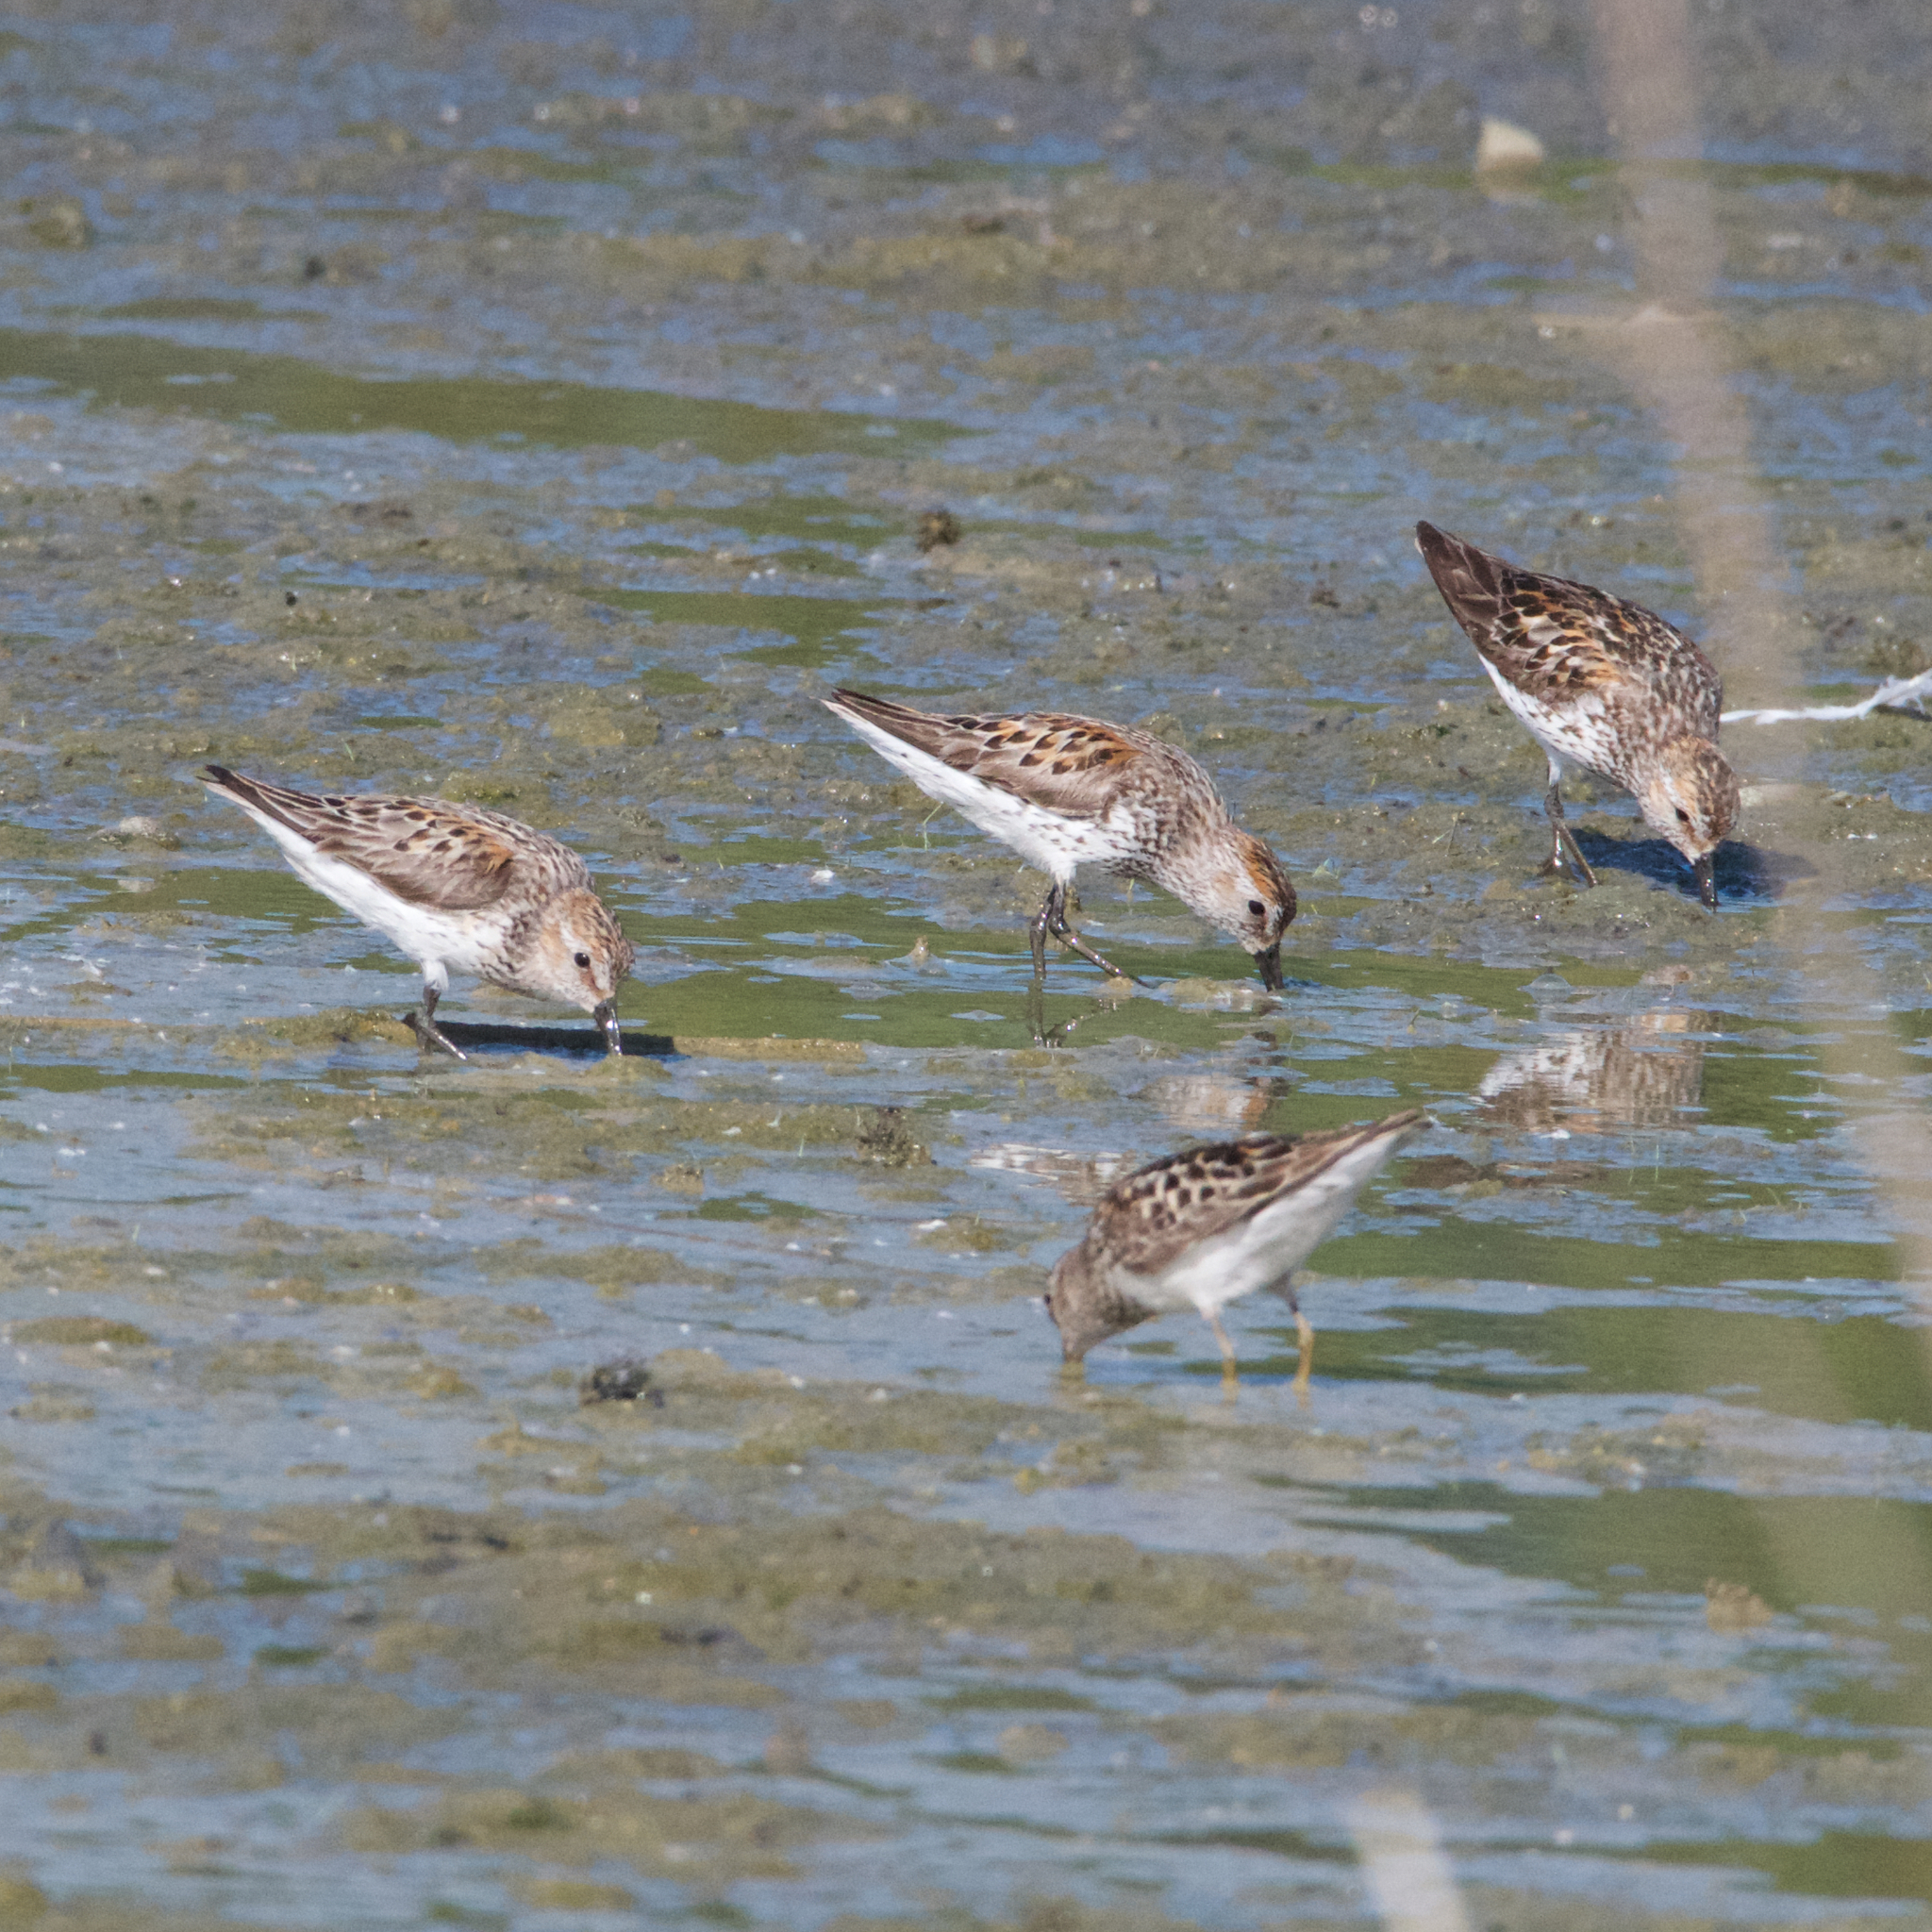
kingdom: Animalia
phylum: Chordata
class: Aves
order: Charadriiformes
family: Scolopacidae
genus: Calidris
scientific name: Calidris mauri
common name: Western sandpiper
